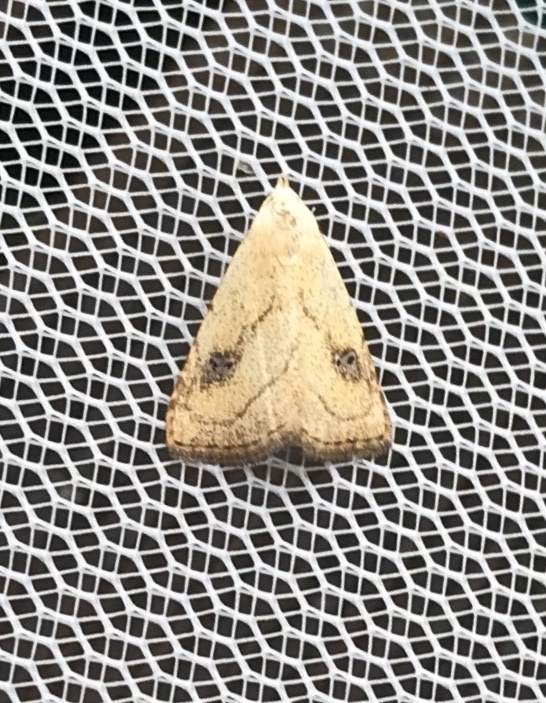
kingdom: Animalia
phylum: Arthropoda
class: Insecta
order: Lepidoptera
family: Erebidae
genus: Rivula
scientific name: Rivula propinqualis
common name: Spotted grass moth
